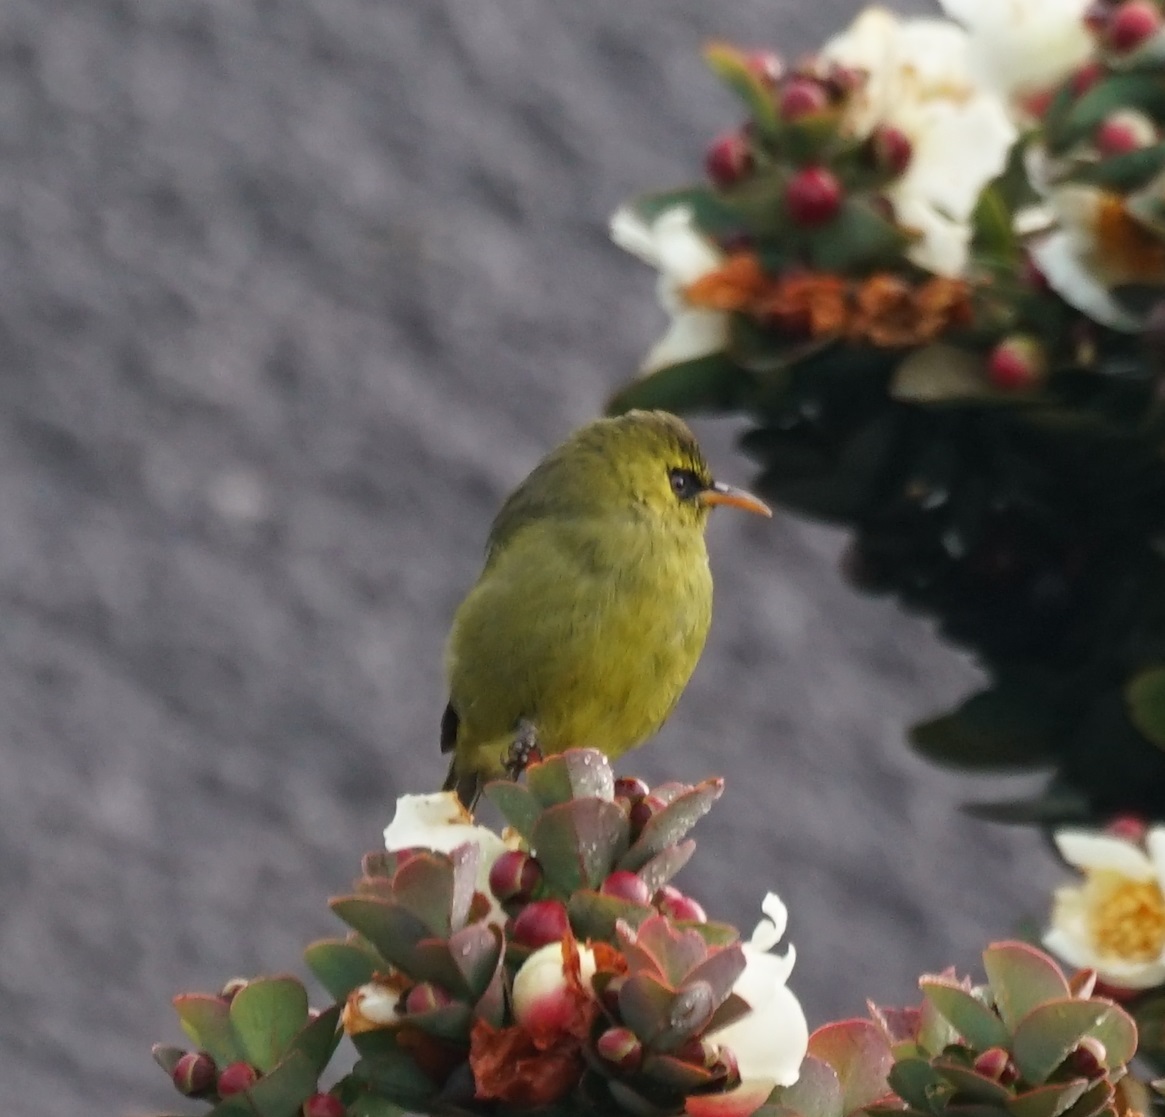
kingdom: Animalia
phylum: Chordata
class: Aves
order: Passeriformes
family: Zosteropidae
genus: Chlorocharis
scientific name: Chlorocharis emiliae
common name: Mountain blackeye
